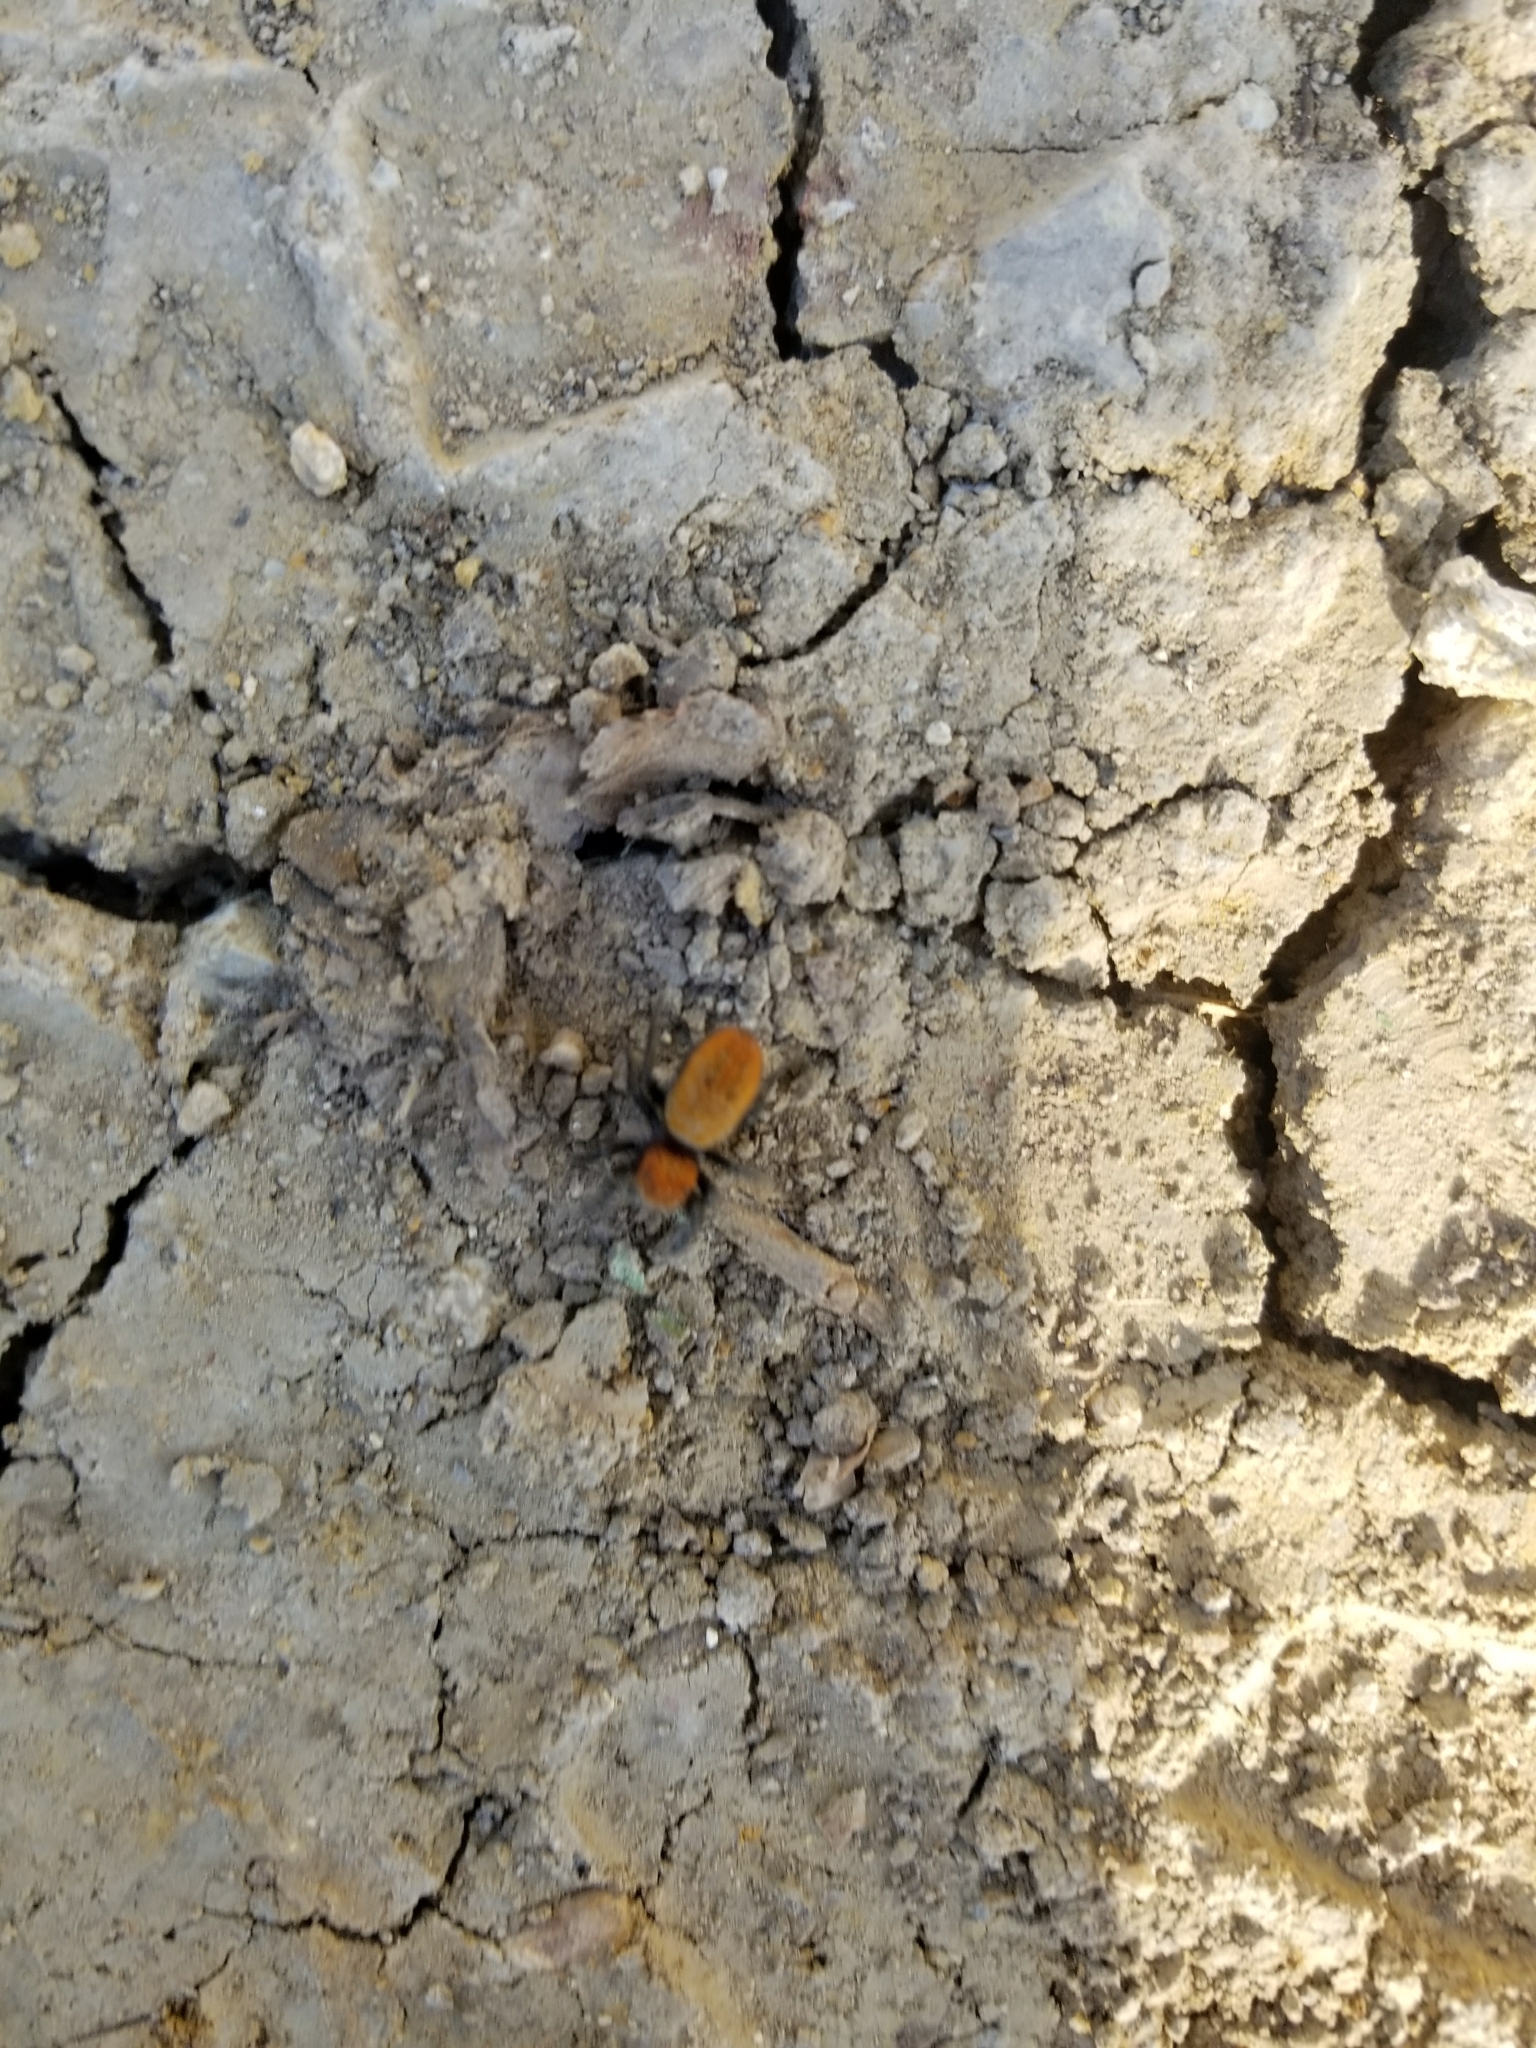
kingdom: Animalia
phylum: Arthropoda
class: Arachnida
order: Araneae
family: Salticidae
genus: Phidippus
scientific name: Phidippus cardinalis
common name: Cardinal jumper
